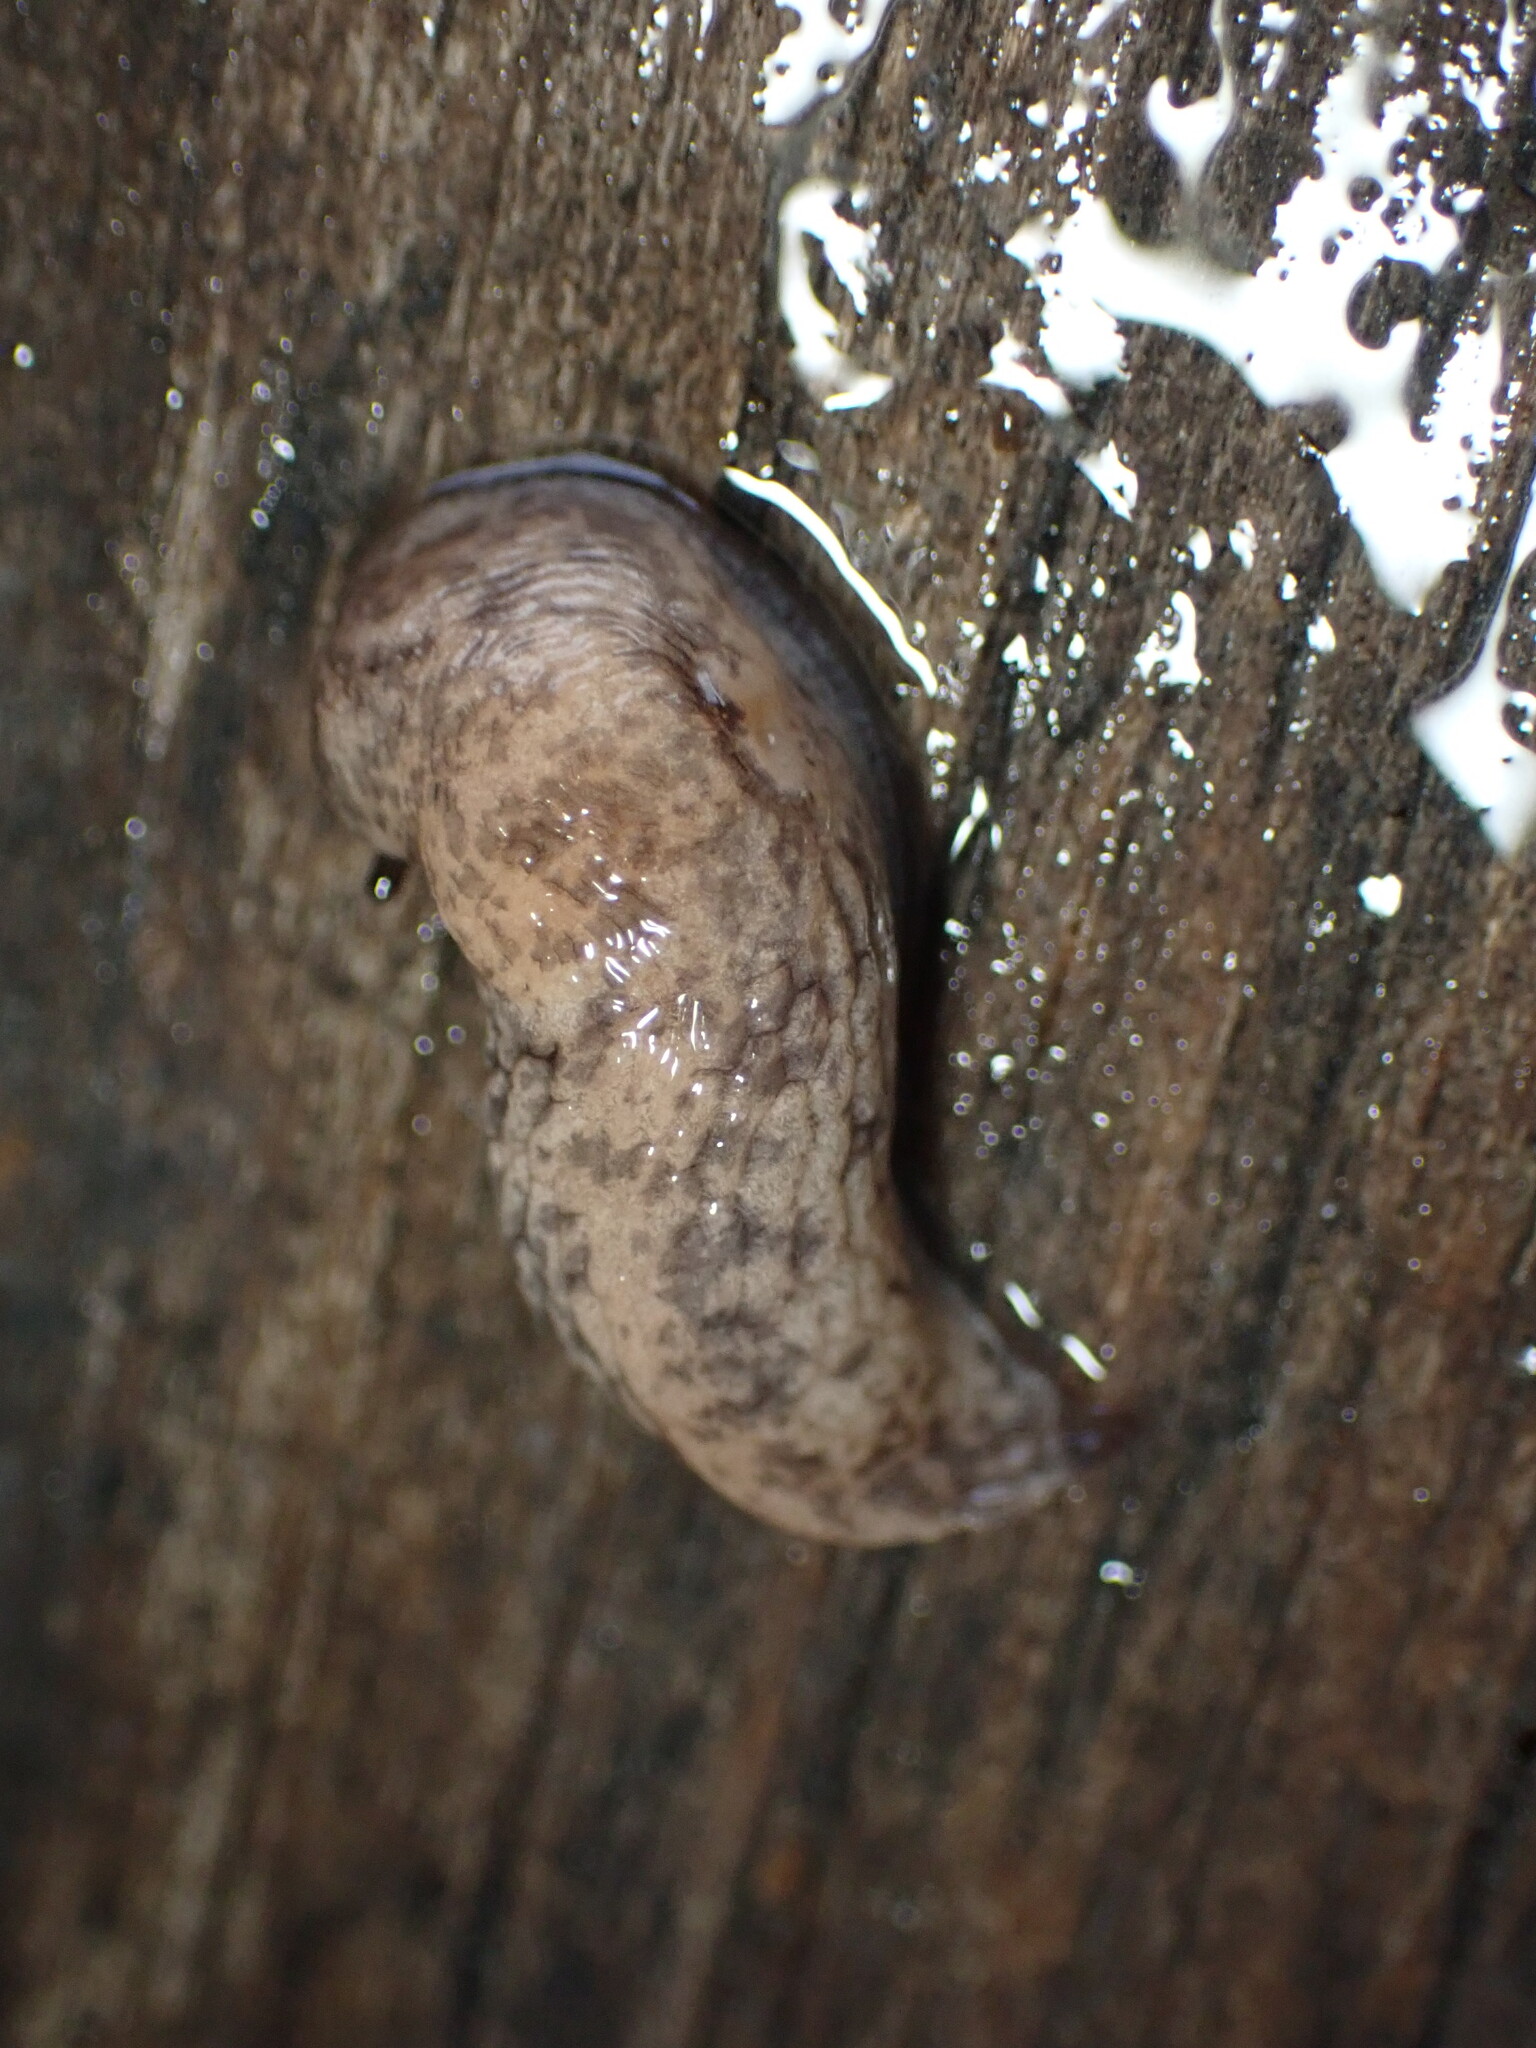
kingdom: Animalia
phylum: Mollusca
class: Gastropoda
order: Stylommatophora
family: Agriolimacidae
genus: Deroceras
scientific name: Deroceras reticulatum
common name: Gray field slug
